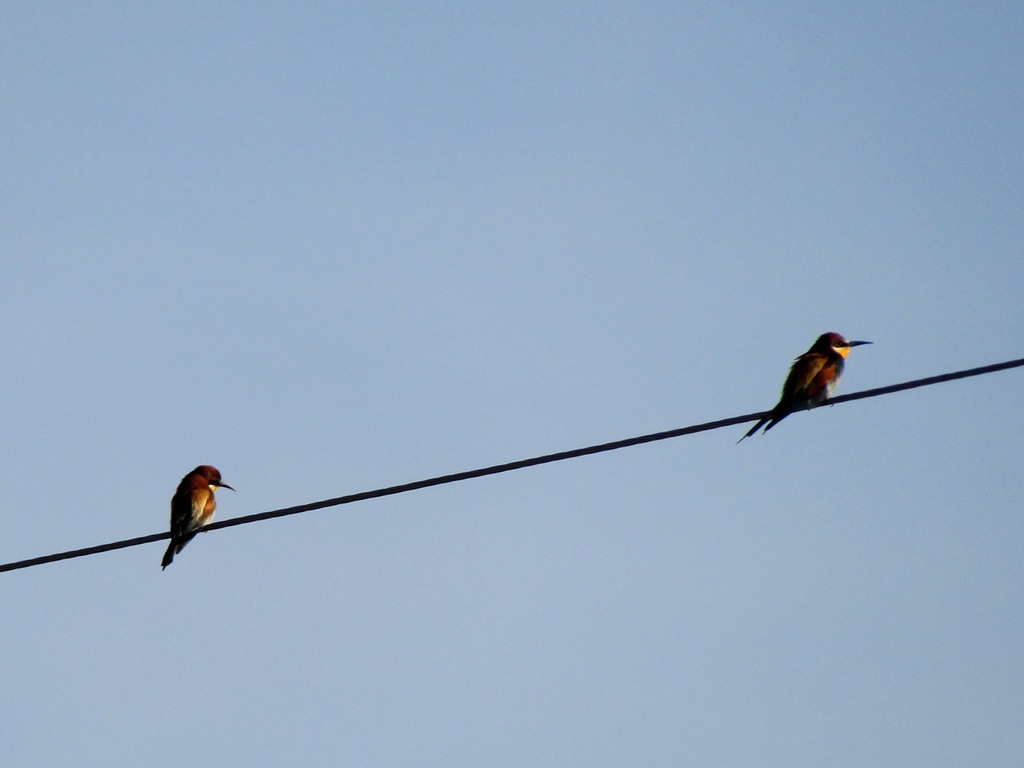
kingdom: Animalia
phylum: Chordata
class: Aves
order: Coraciiformes
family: Meropidae
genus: Merops
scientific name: Merops apiaster
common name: European bee-eater
